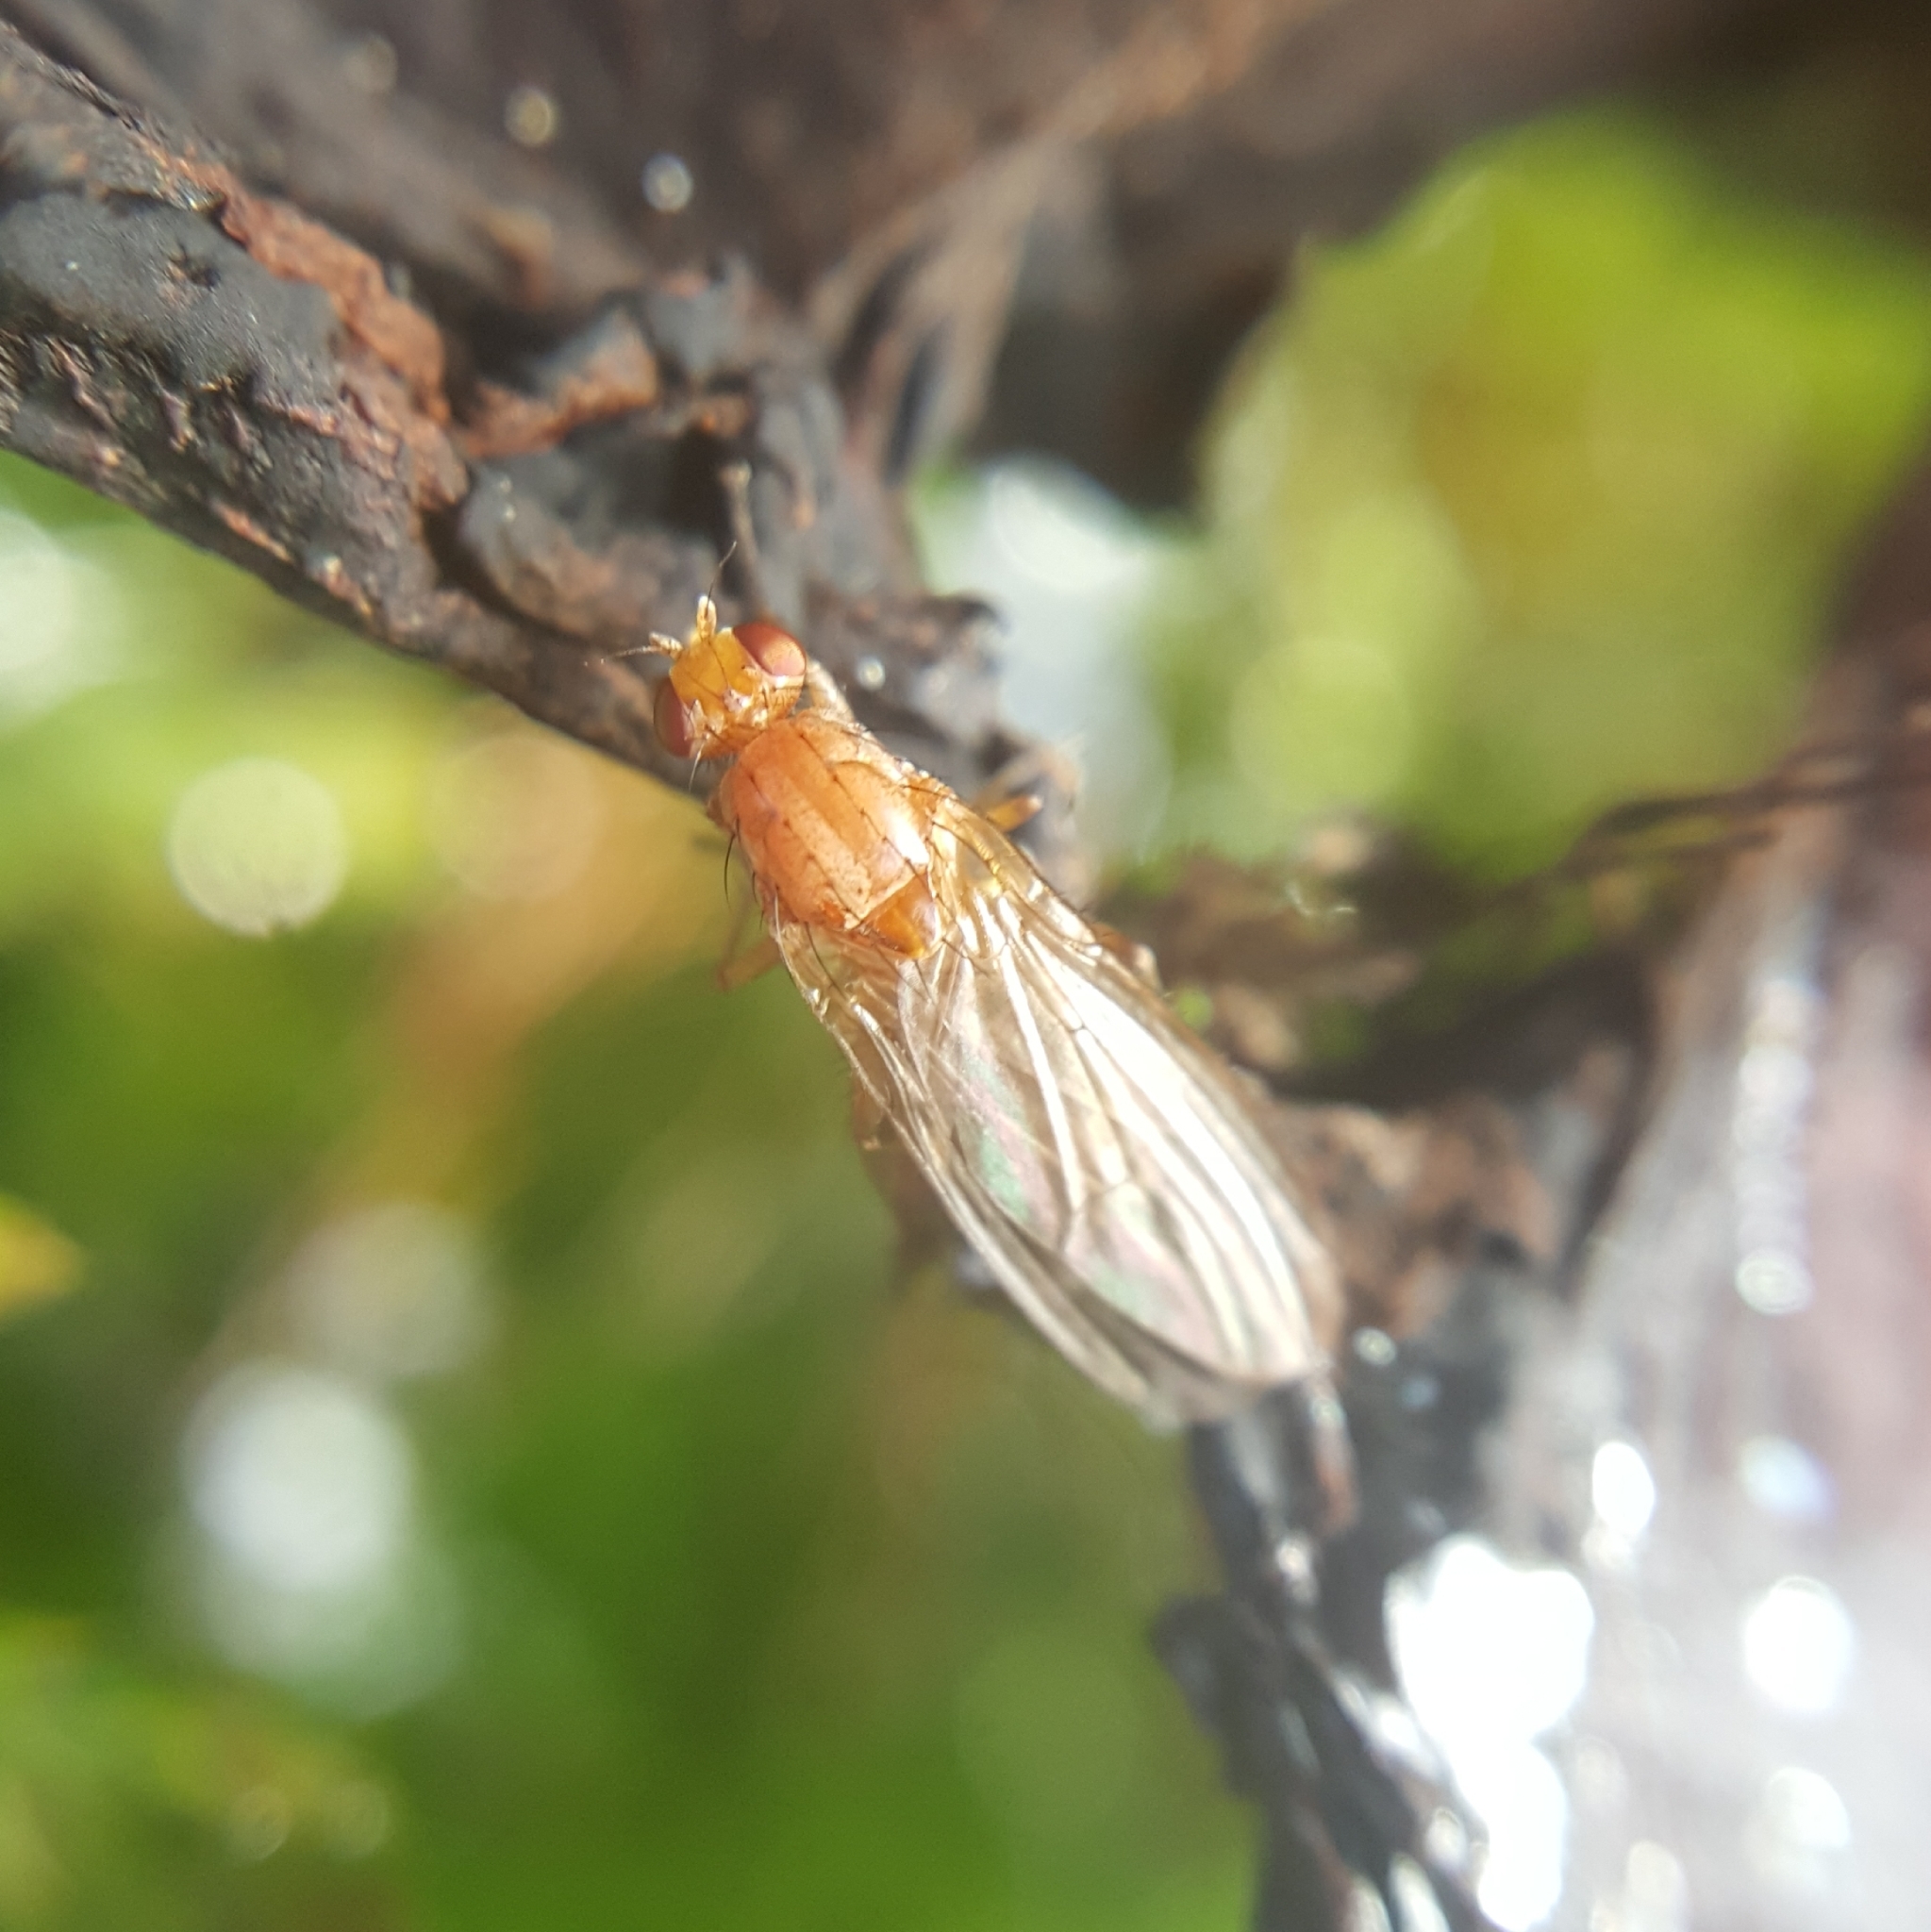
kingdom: Animalia
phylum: Arthropoda
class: Insecta
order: Diptera
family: Heleomyzidae
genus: Suillia
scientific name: Suillia convergens
